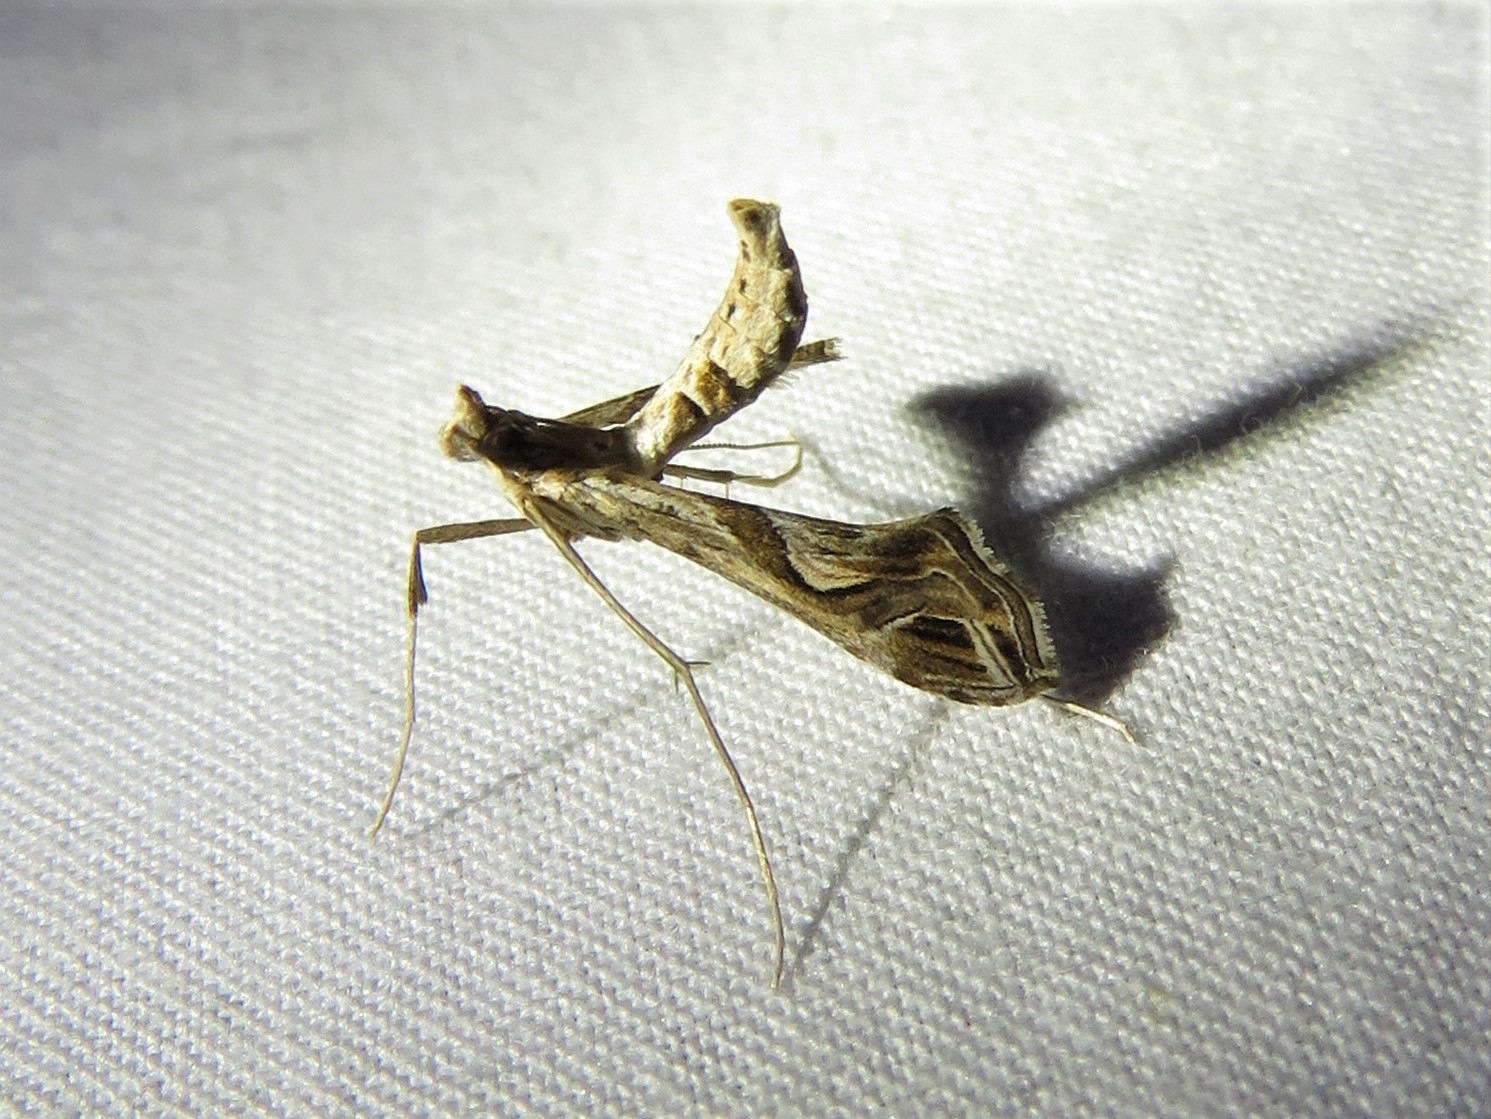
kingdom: Animalia
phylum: Arthropoda
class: Insecta
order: Lepidoptera
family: Crambidae
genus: Lineodes
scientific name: Lineodes integra
